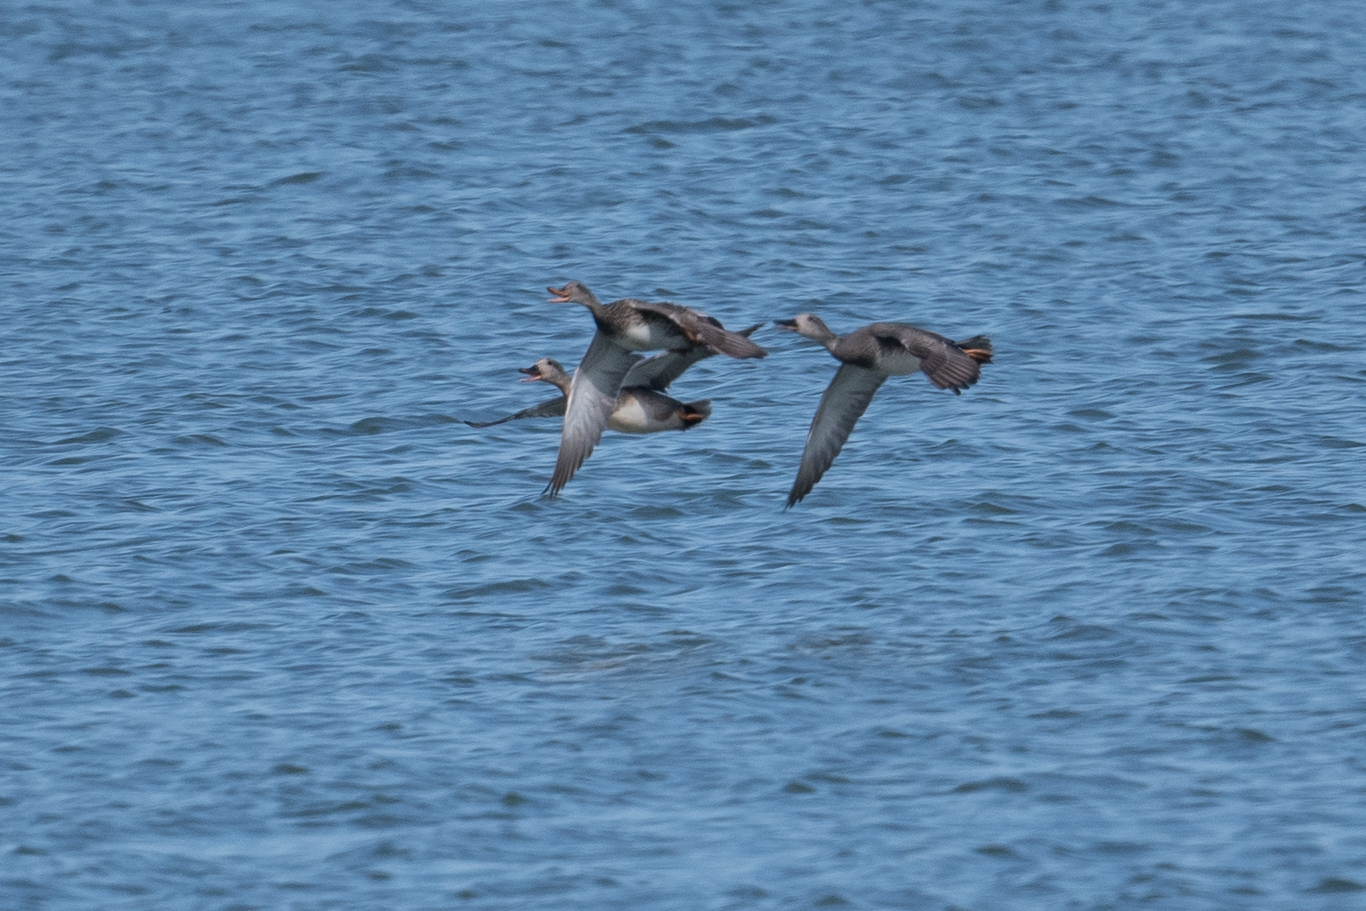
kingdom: Animalia
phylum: Chordata
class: Aves
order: Anseriformes
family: Anatidae
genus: Mareca
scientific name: Mareca strepera
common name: Gadwall
